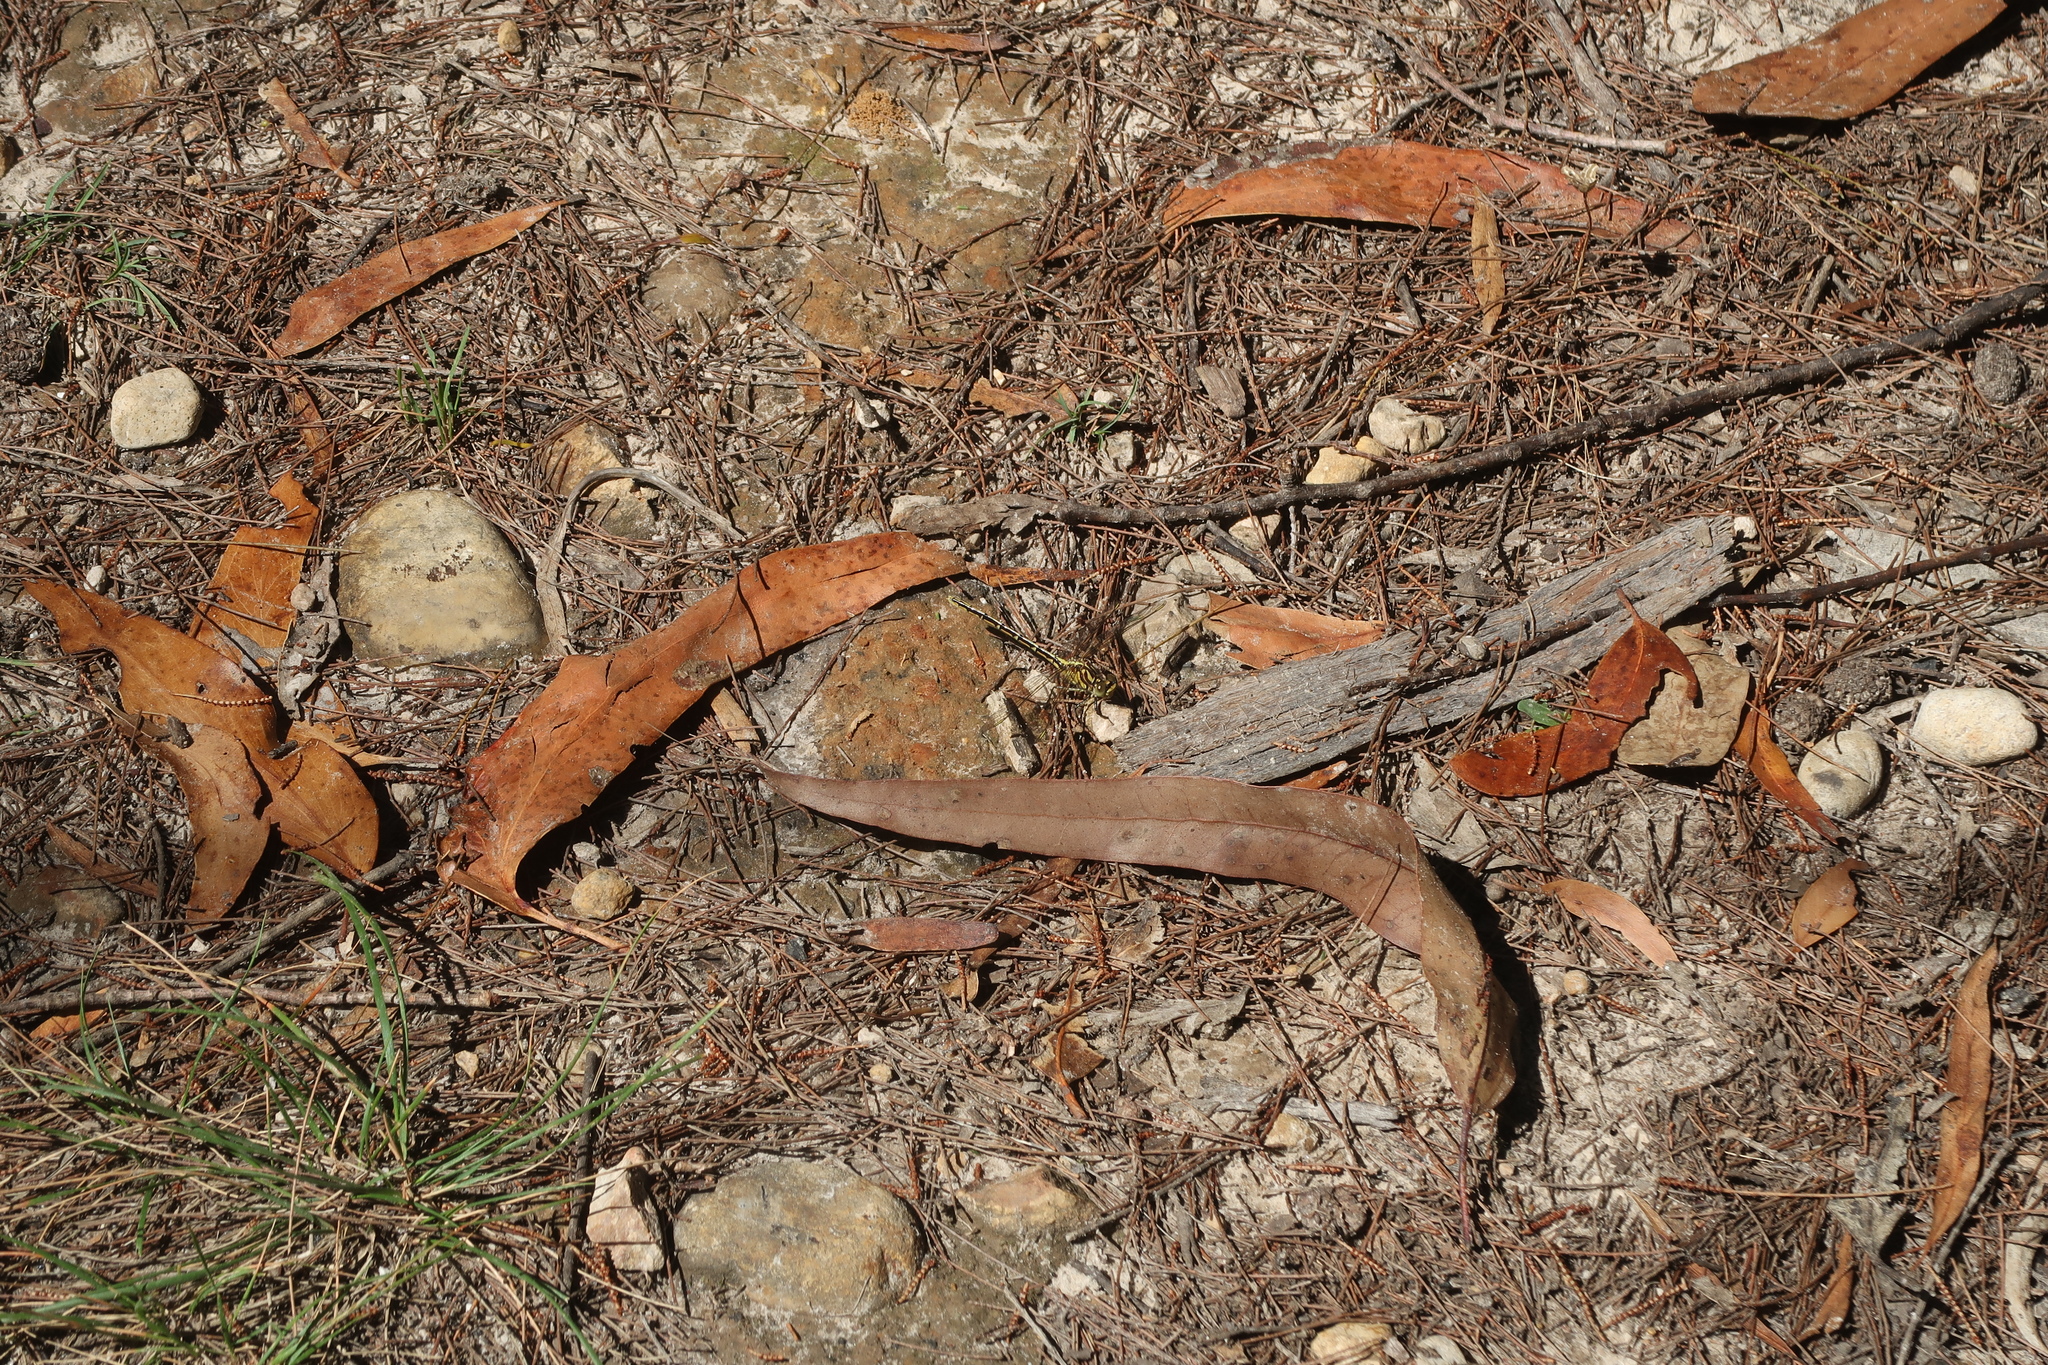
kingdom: Animalia
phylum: Arthropoda
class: Insecta
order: Odonata
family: Gomphidae
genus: Austrogomphus
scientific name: Austrogomphus guerini
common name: Yellow-striped hunter
